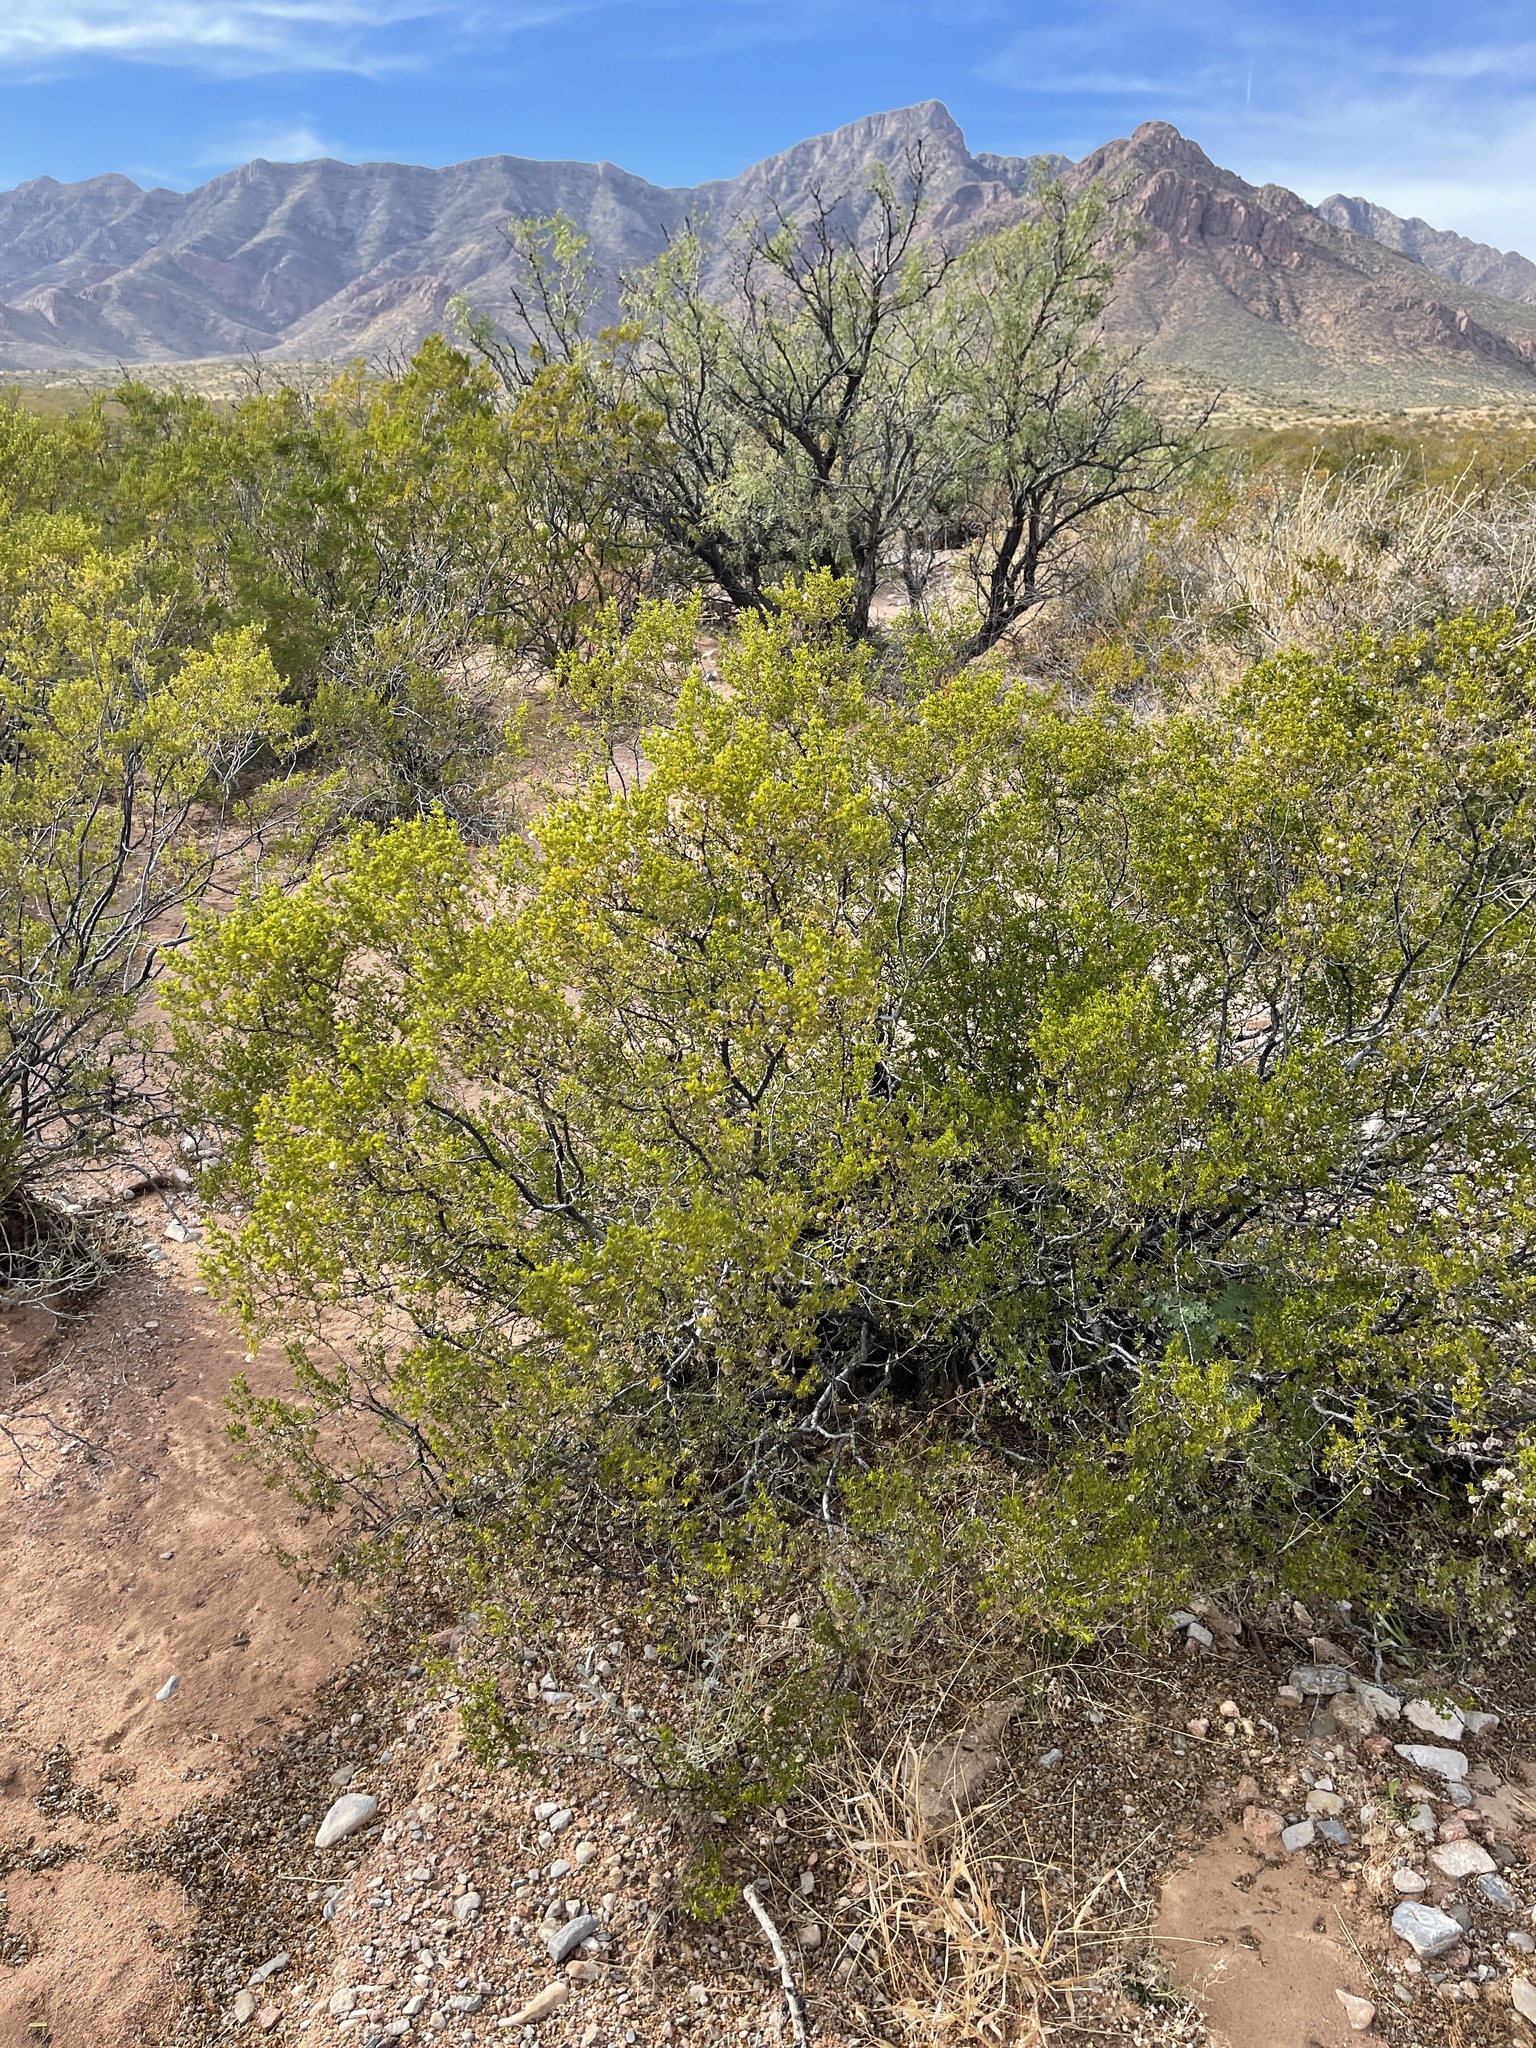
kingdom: Plantae
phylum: Tracheophyta
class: Magnoliopsida
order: Zygophyllales
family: Zygophyllaceae
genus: Larrea
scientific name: Larrea tridentata
